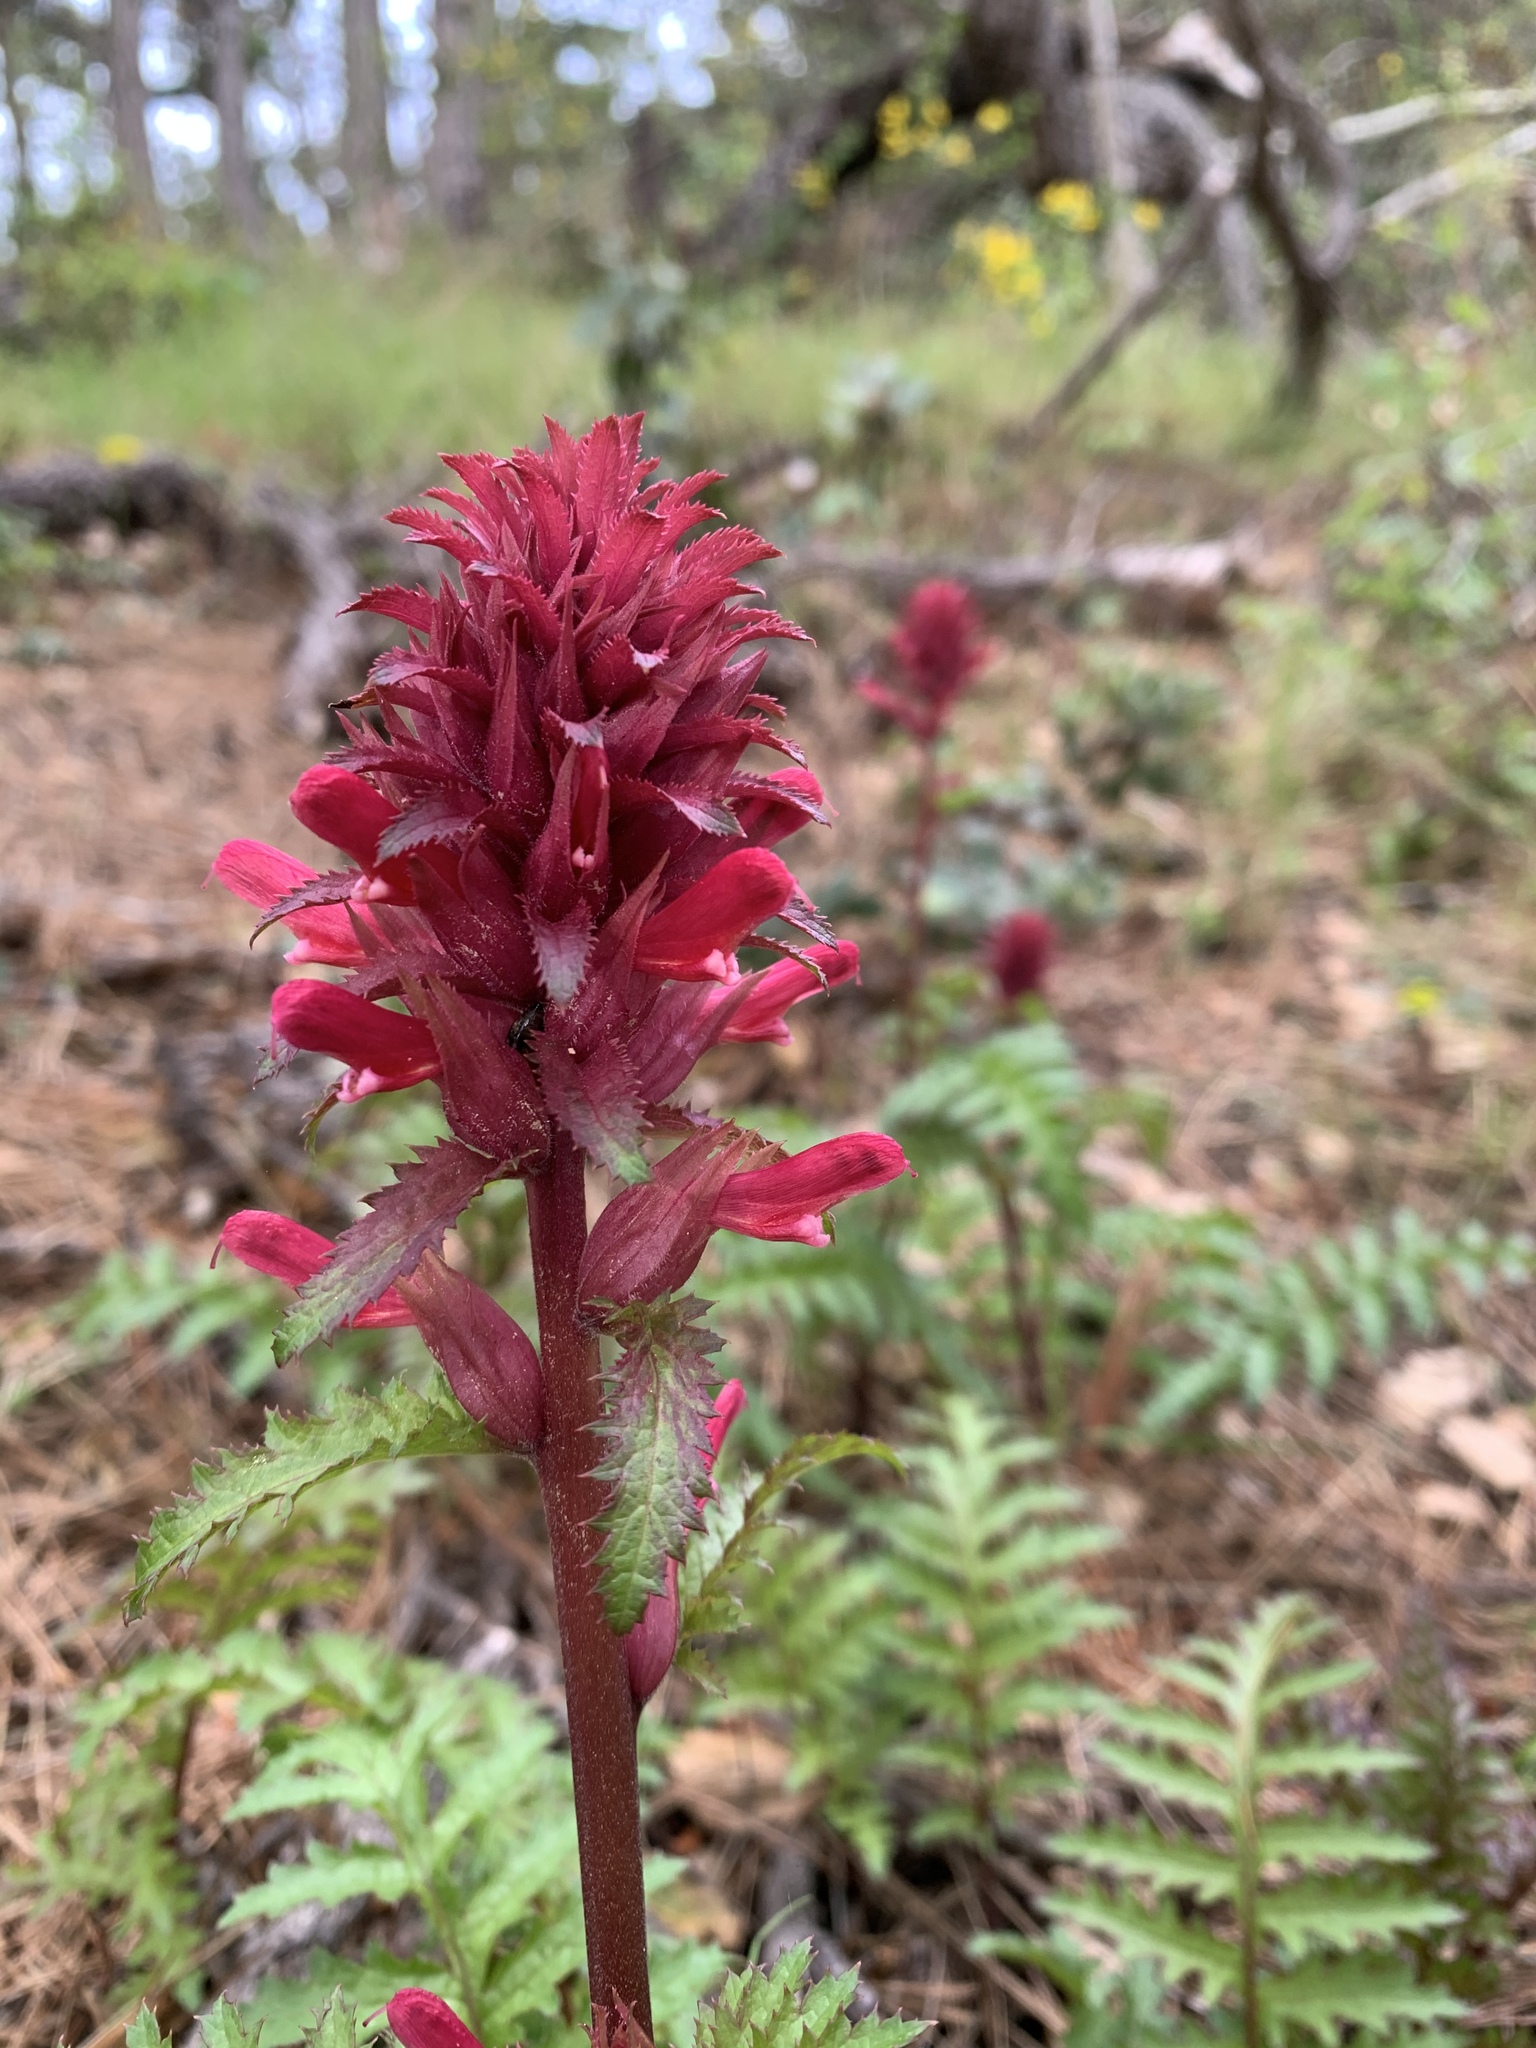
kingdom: Plantae
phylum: Tracheophyta
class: Magnoliopsida
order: Lamiales
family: Orobanchaceae
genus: Pedicularis
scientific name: Pedicularis densiflora
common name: Indian warrior
